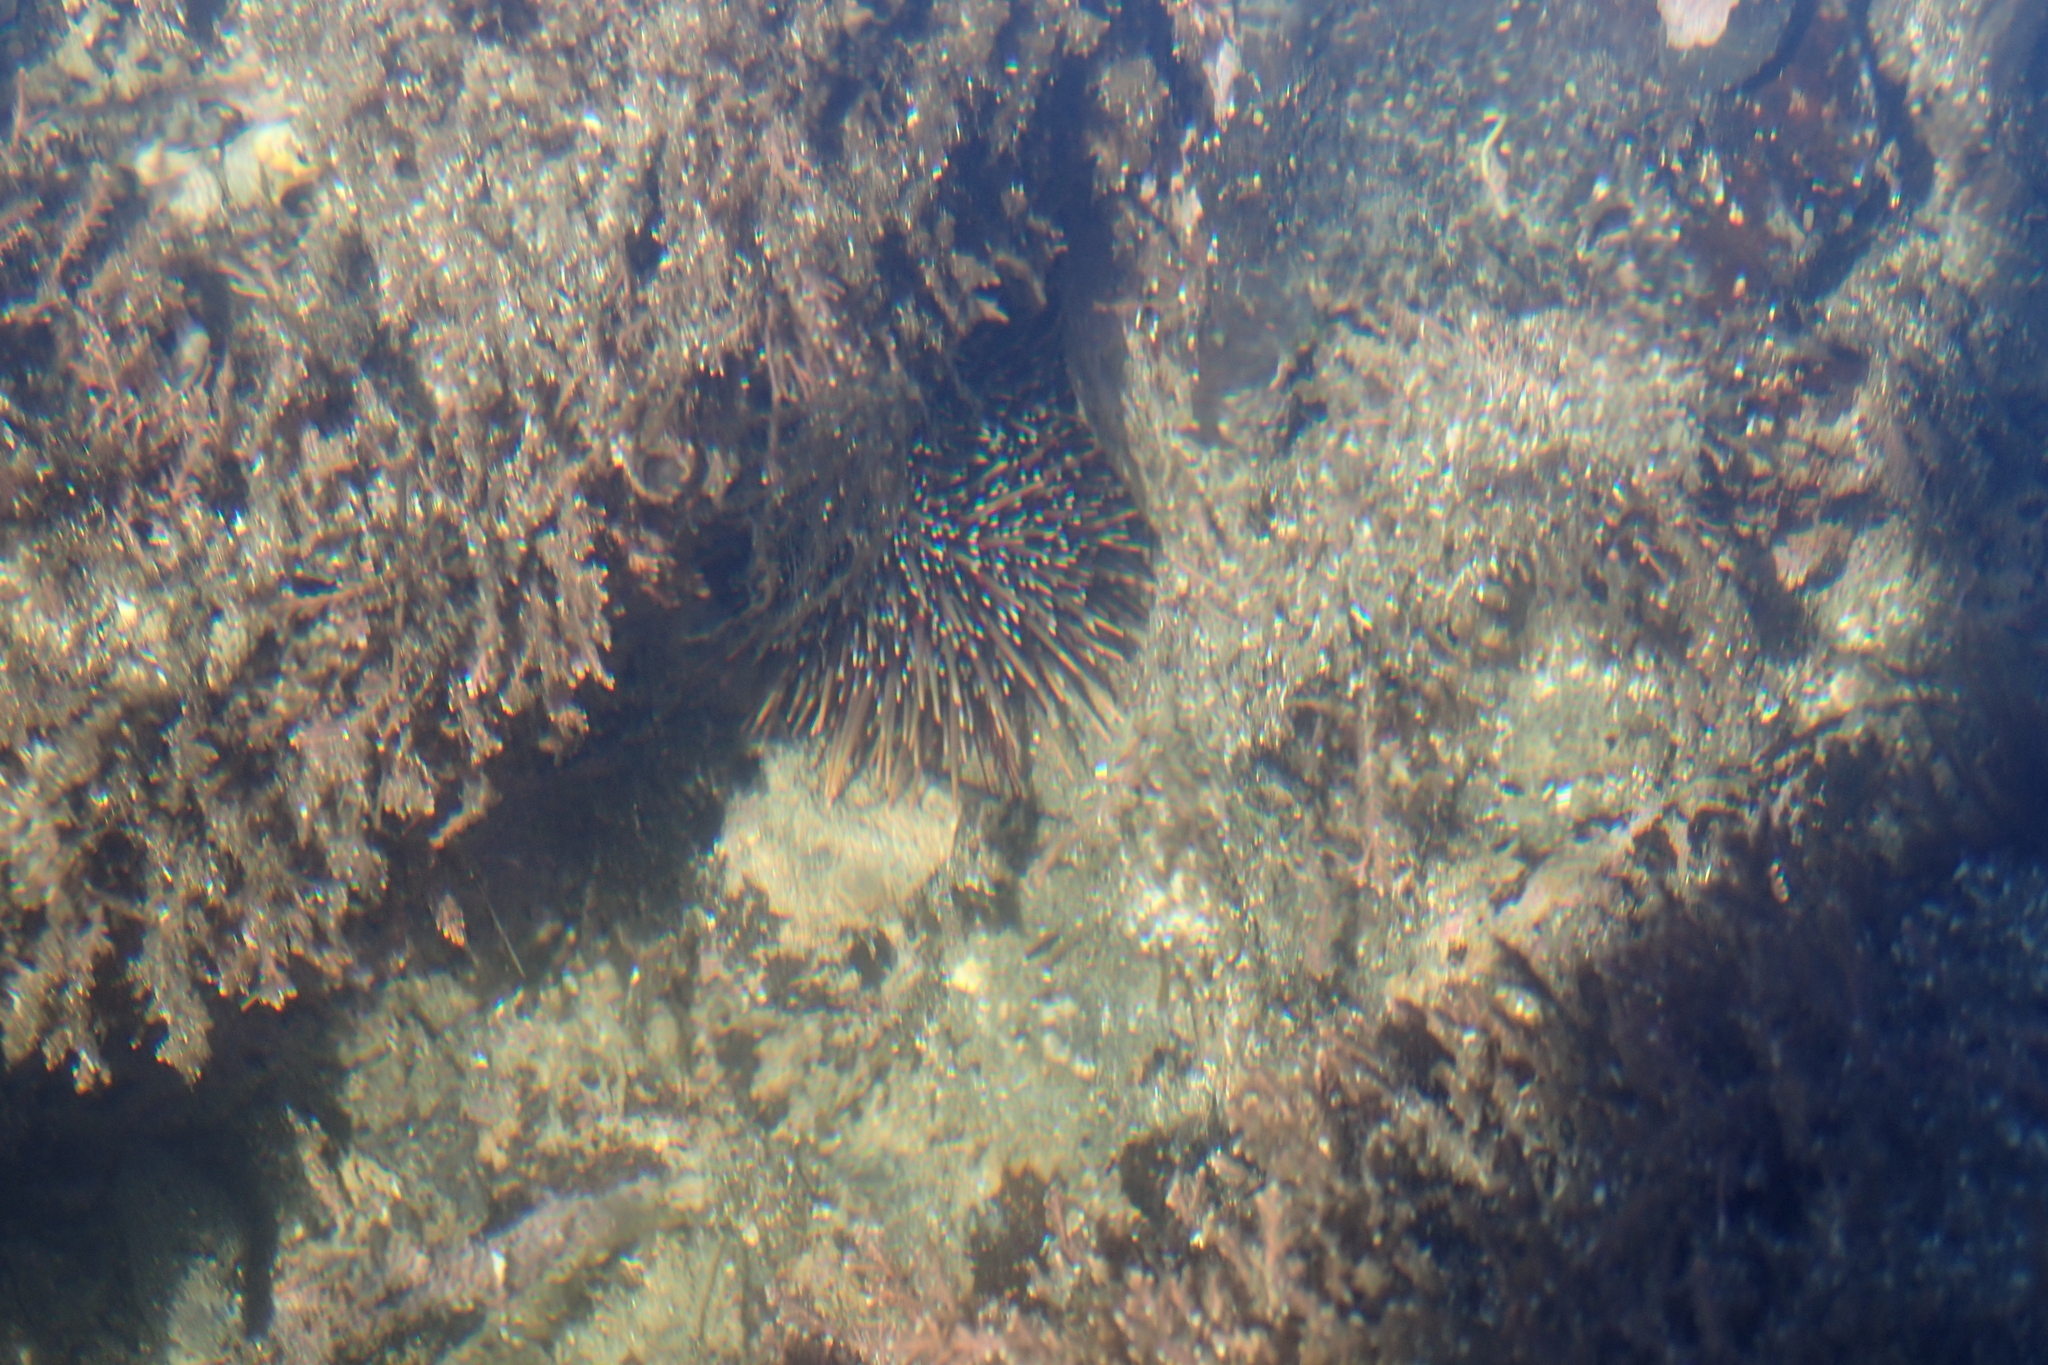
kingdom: Animalia
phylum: Echinodermata
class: Echinoidea
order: Camarodonta
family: Echinometridae
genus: Evechinus
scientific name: Evechinus chloroticus
